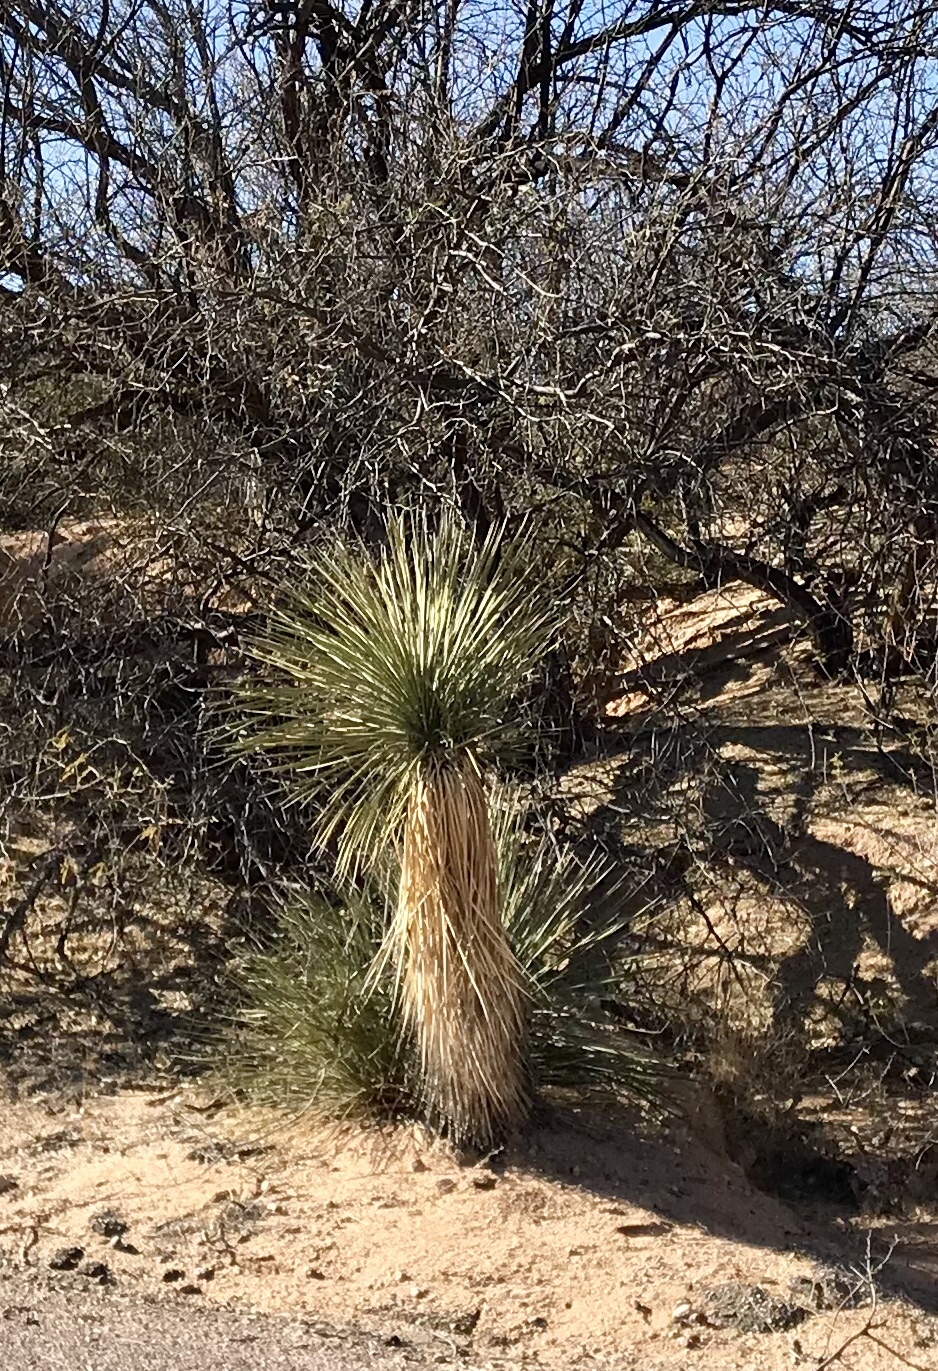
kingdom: Plantae
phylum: Tracheophyta
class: Liliopsida
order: Asparagales
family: Asparagaceae
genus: Yucca
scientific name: Yucca elata
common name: Palmella
